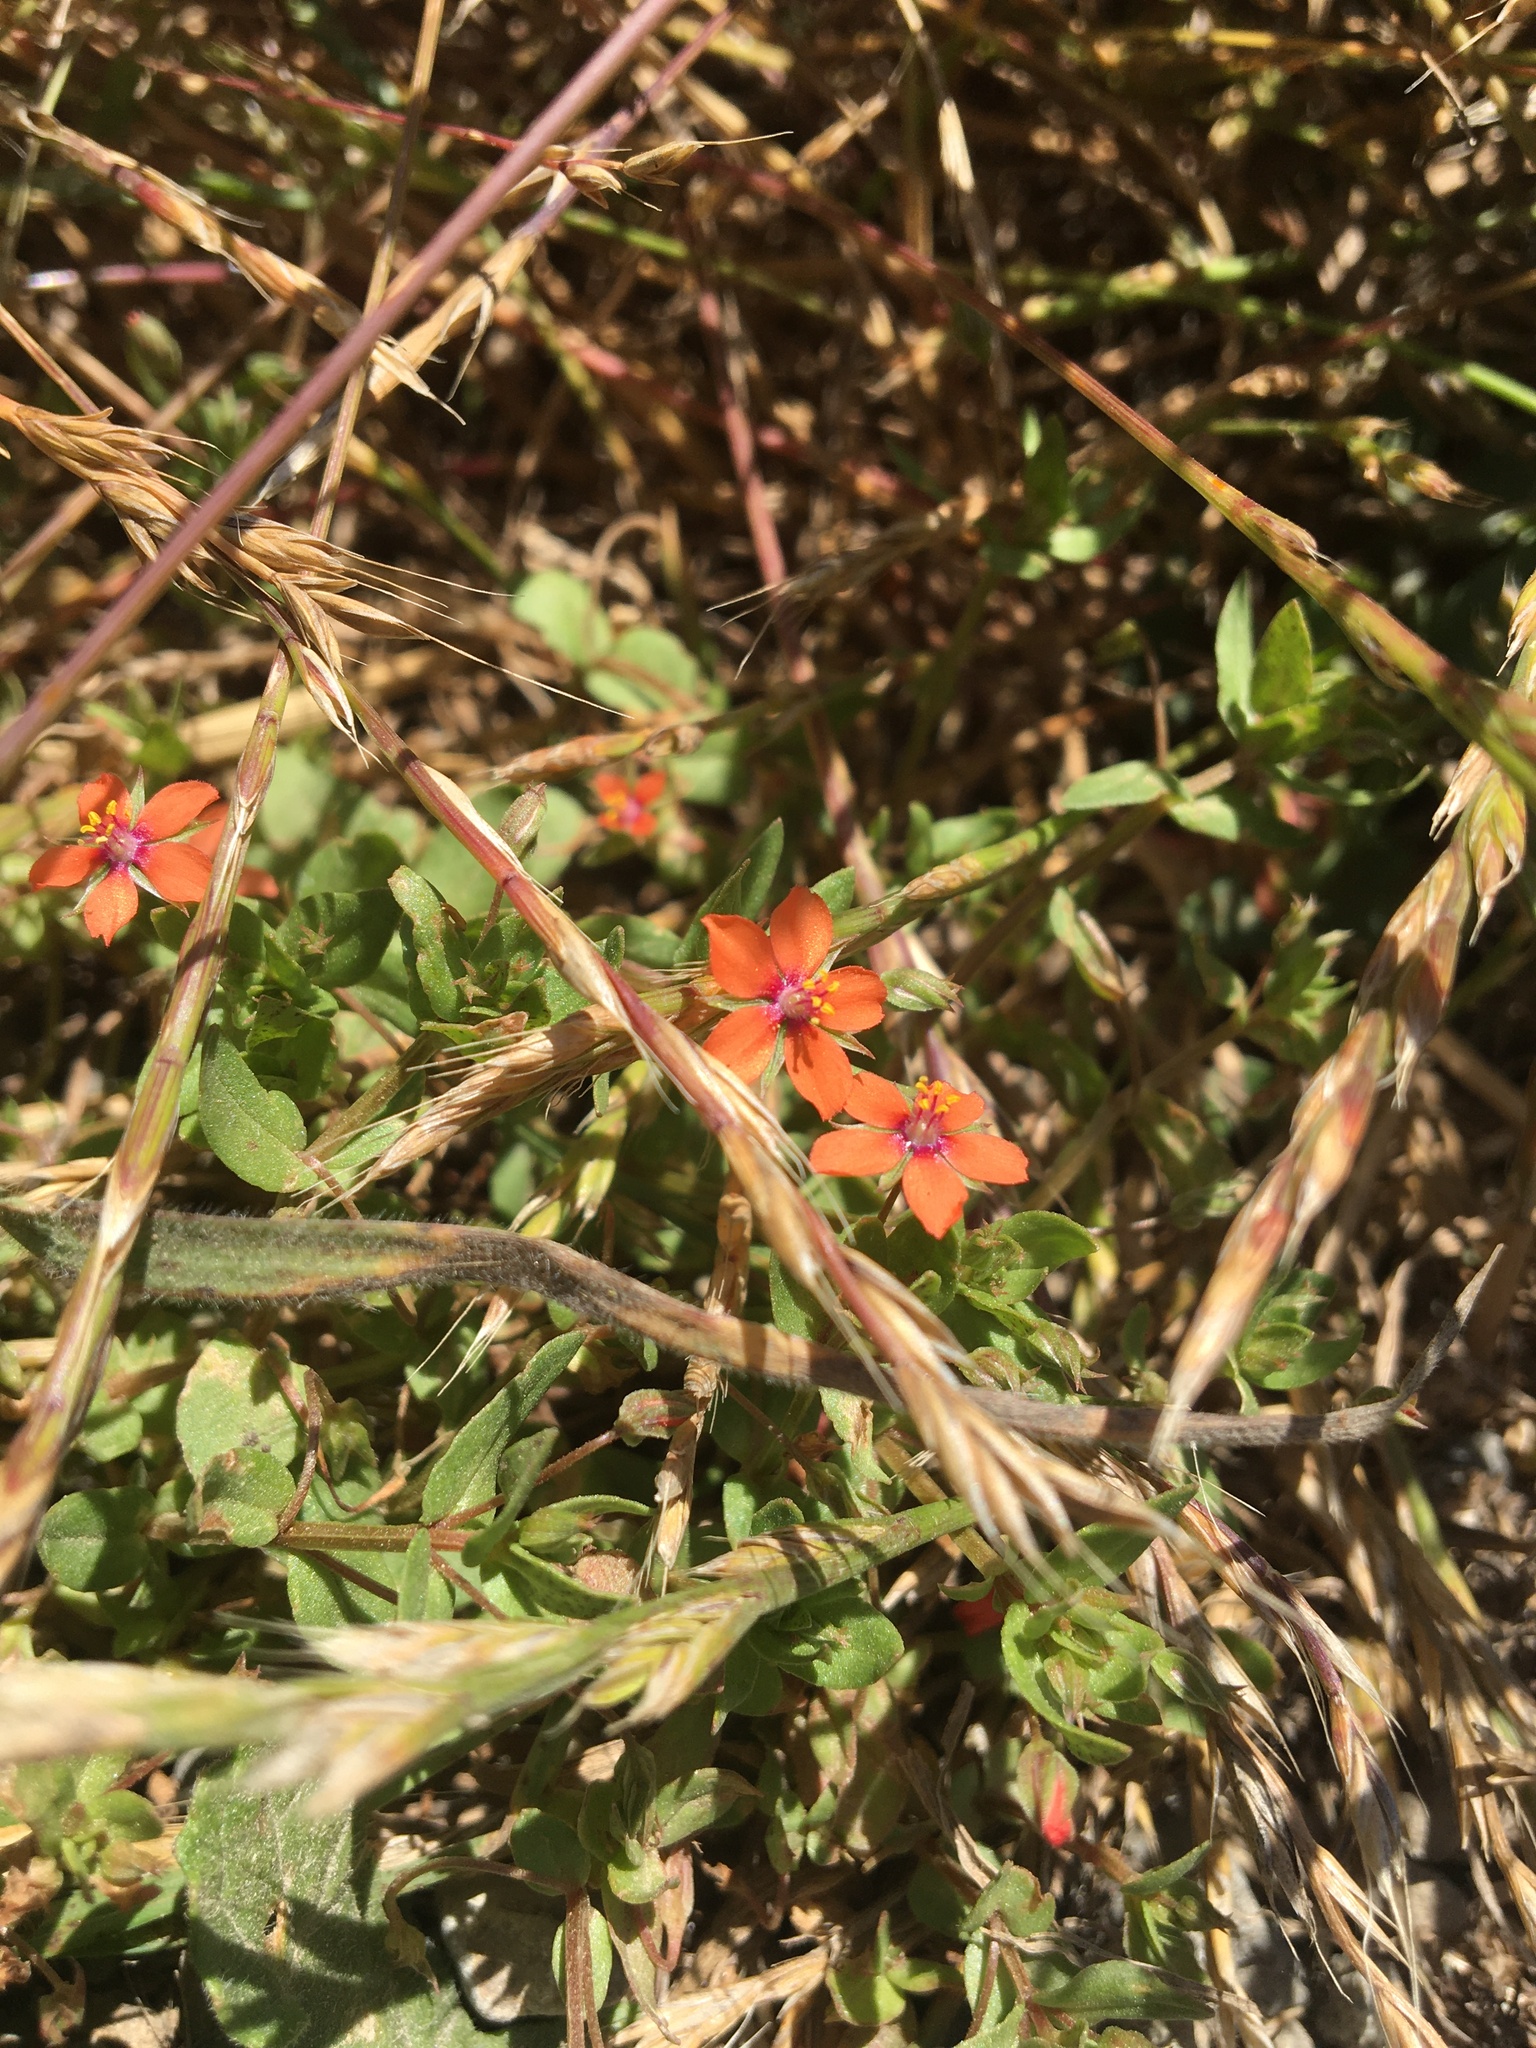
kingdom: Plantae
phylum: Tracheophyta
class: Magnoliopsida
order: Ericales
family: Primulaceae
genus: Lysimachia
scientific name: Lysimachia arvensis
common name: Scarlet pimpernel
